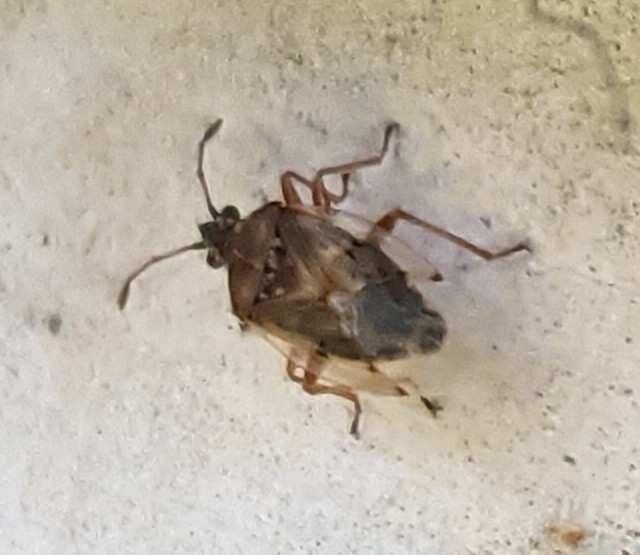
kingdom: Animalia
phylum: Arthropoda
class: Insecta
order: Hemiptera
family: Lygaeidae
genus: Kleidocerys
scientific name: Kleidocerys resedae
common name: Birch catkin bug
